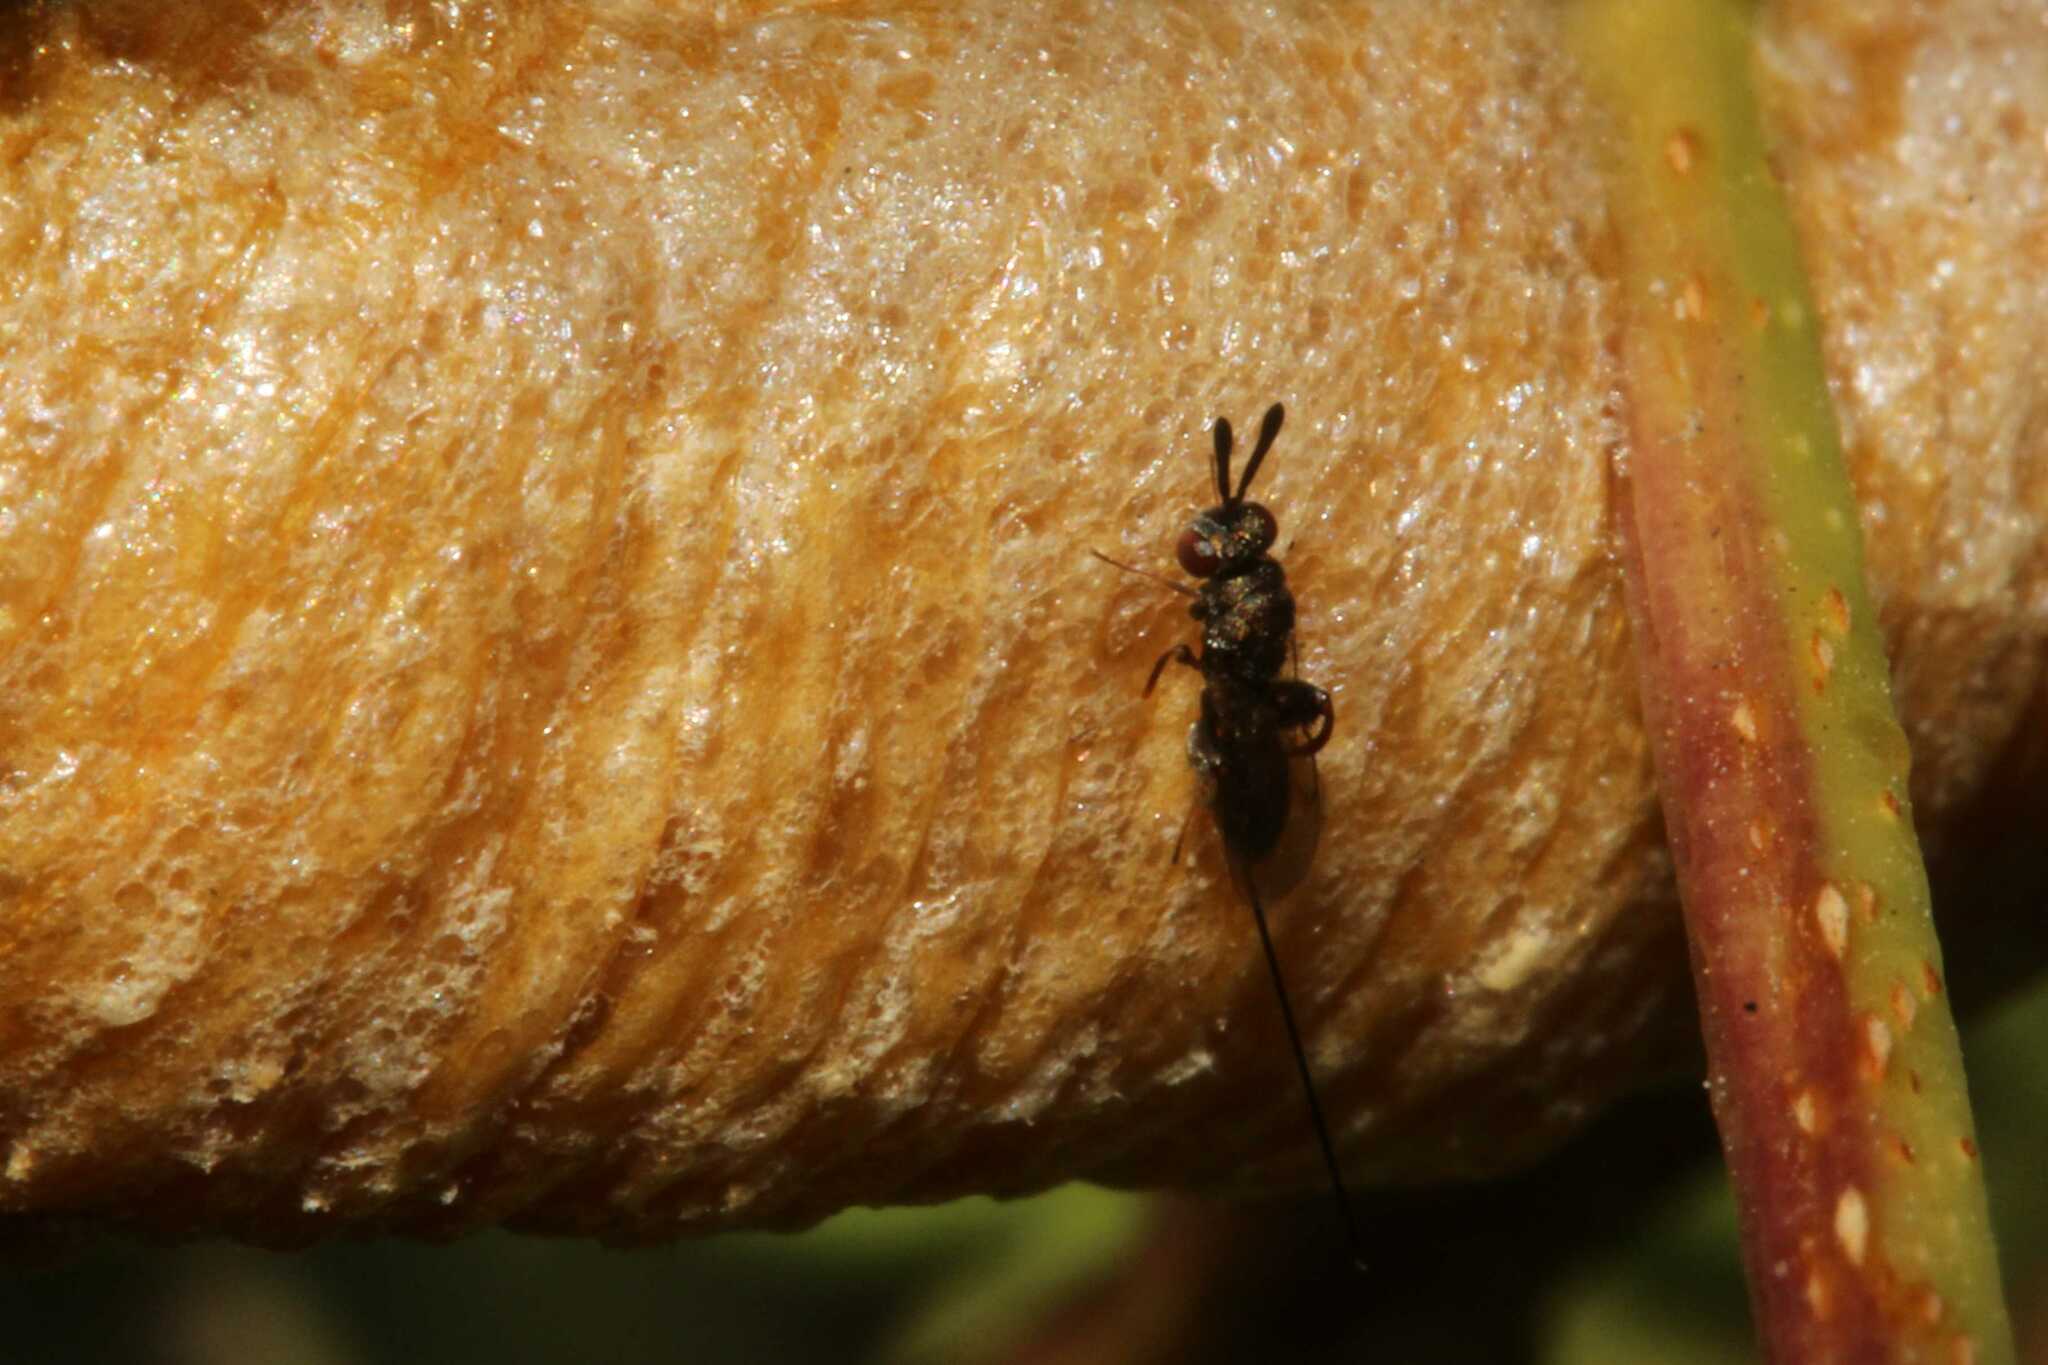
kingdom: Animalia
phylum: Arthropoda
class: Insecta
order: Hymenoptera
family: Torymidae
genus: Podagrion
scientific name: Podagrion
